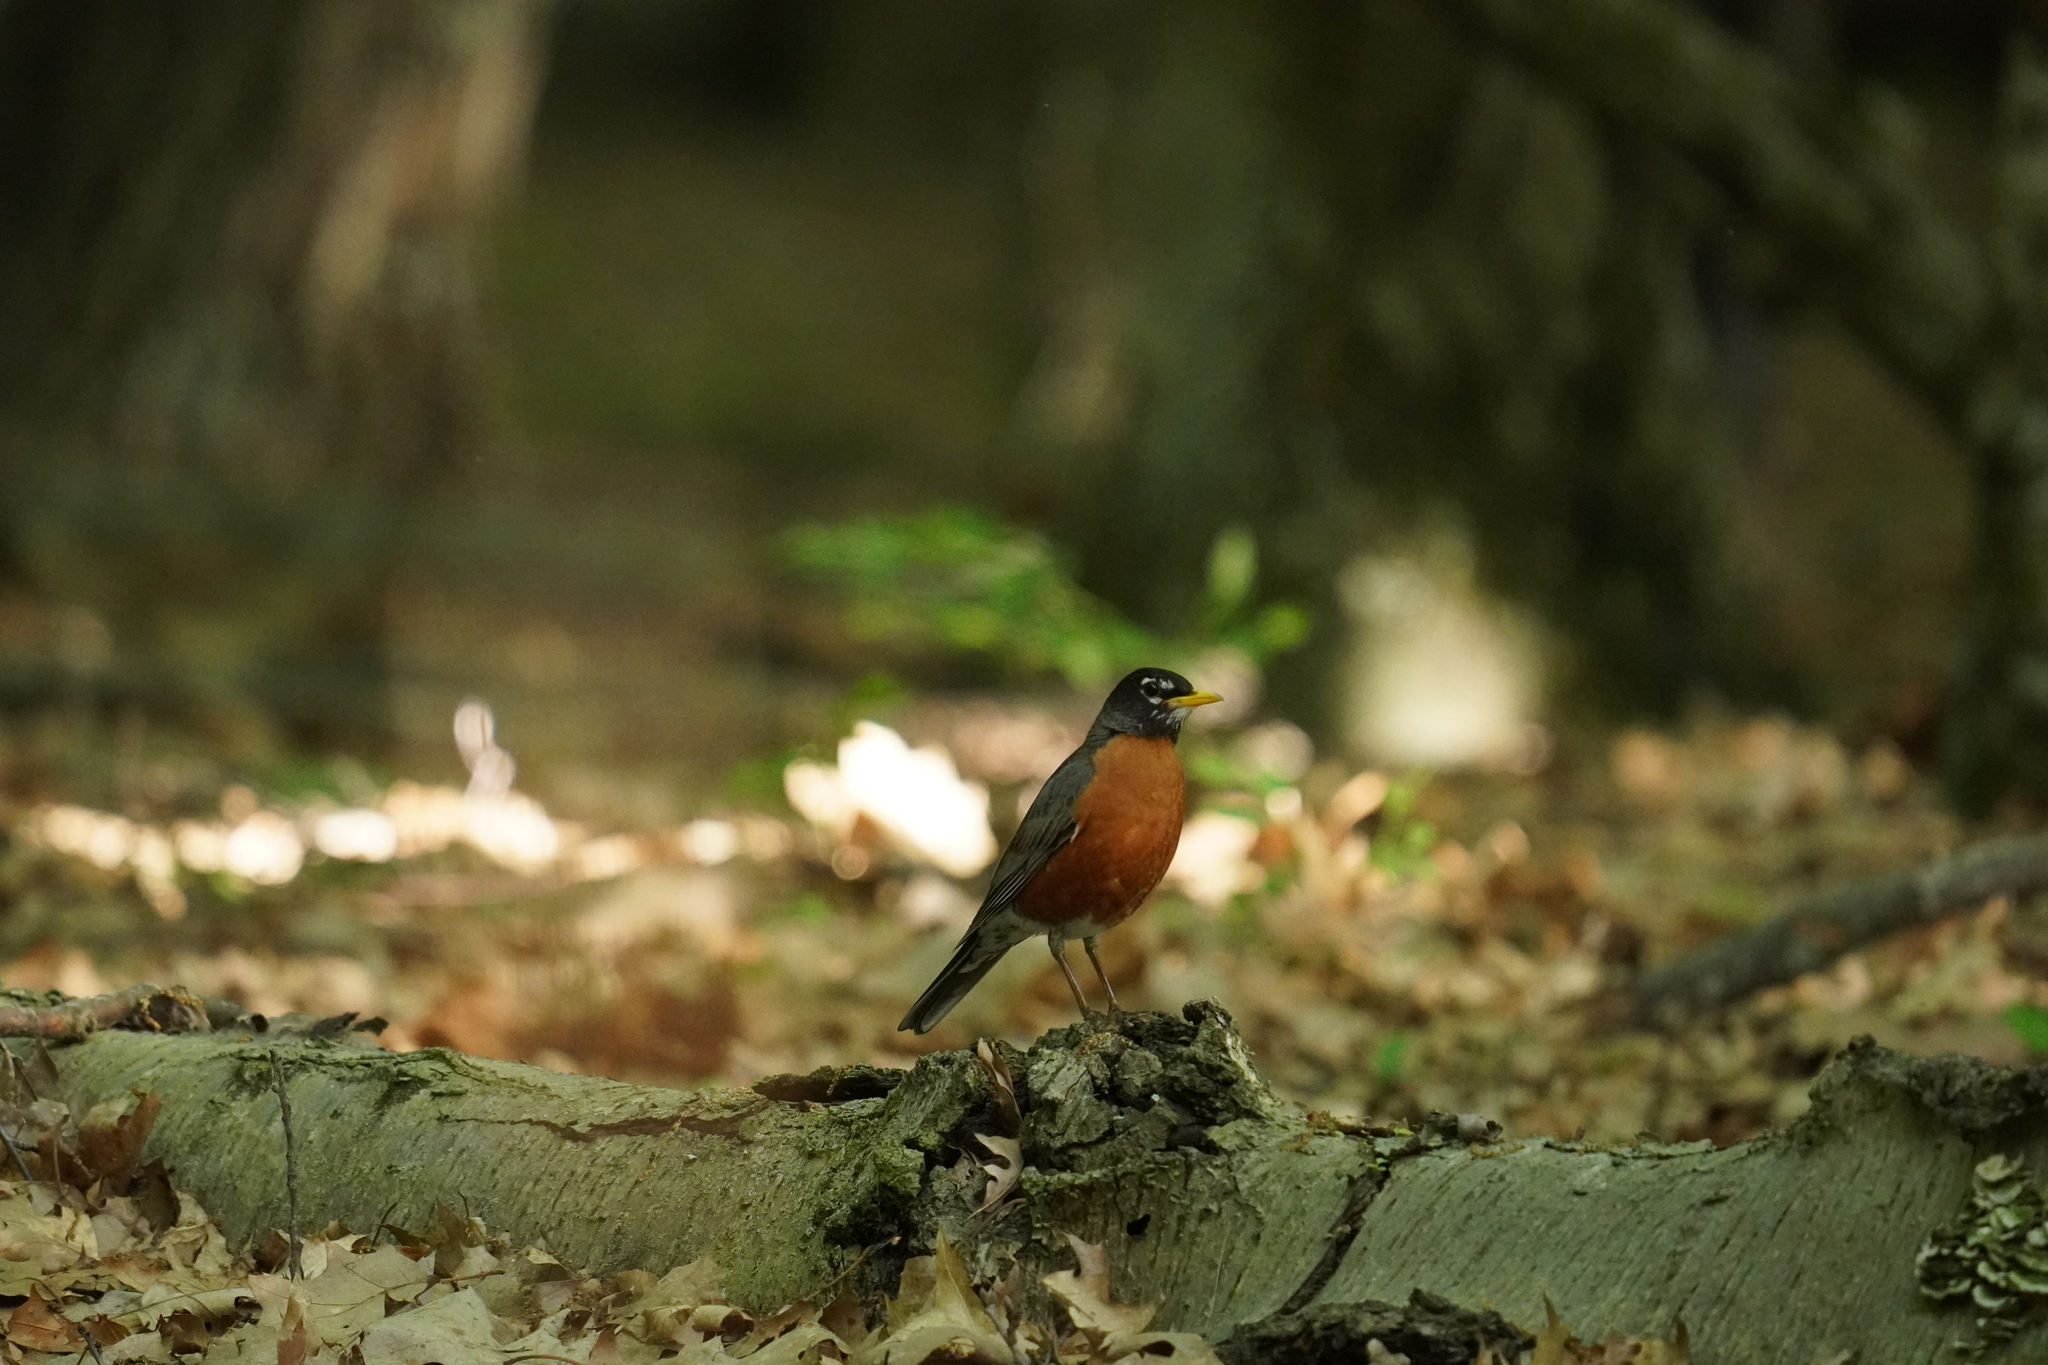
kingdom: Animalia
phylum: Chordata
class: Aves
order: Passeriformes
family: Turdidae
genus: Turdus
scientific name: Turdus migratorius
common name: American robin
